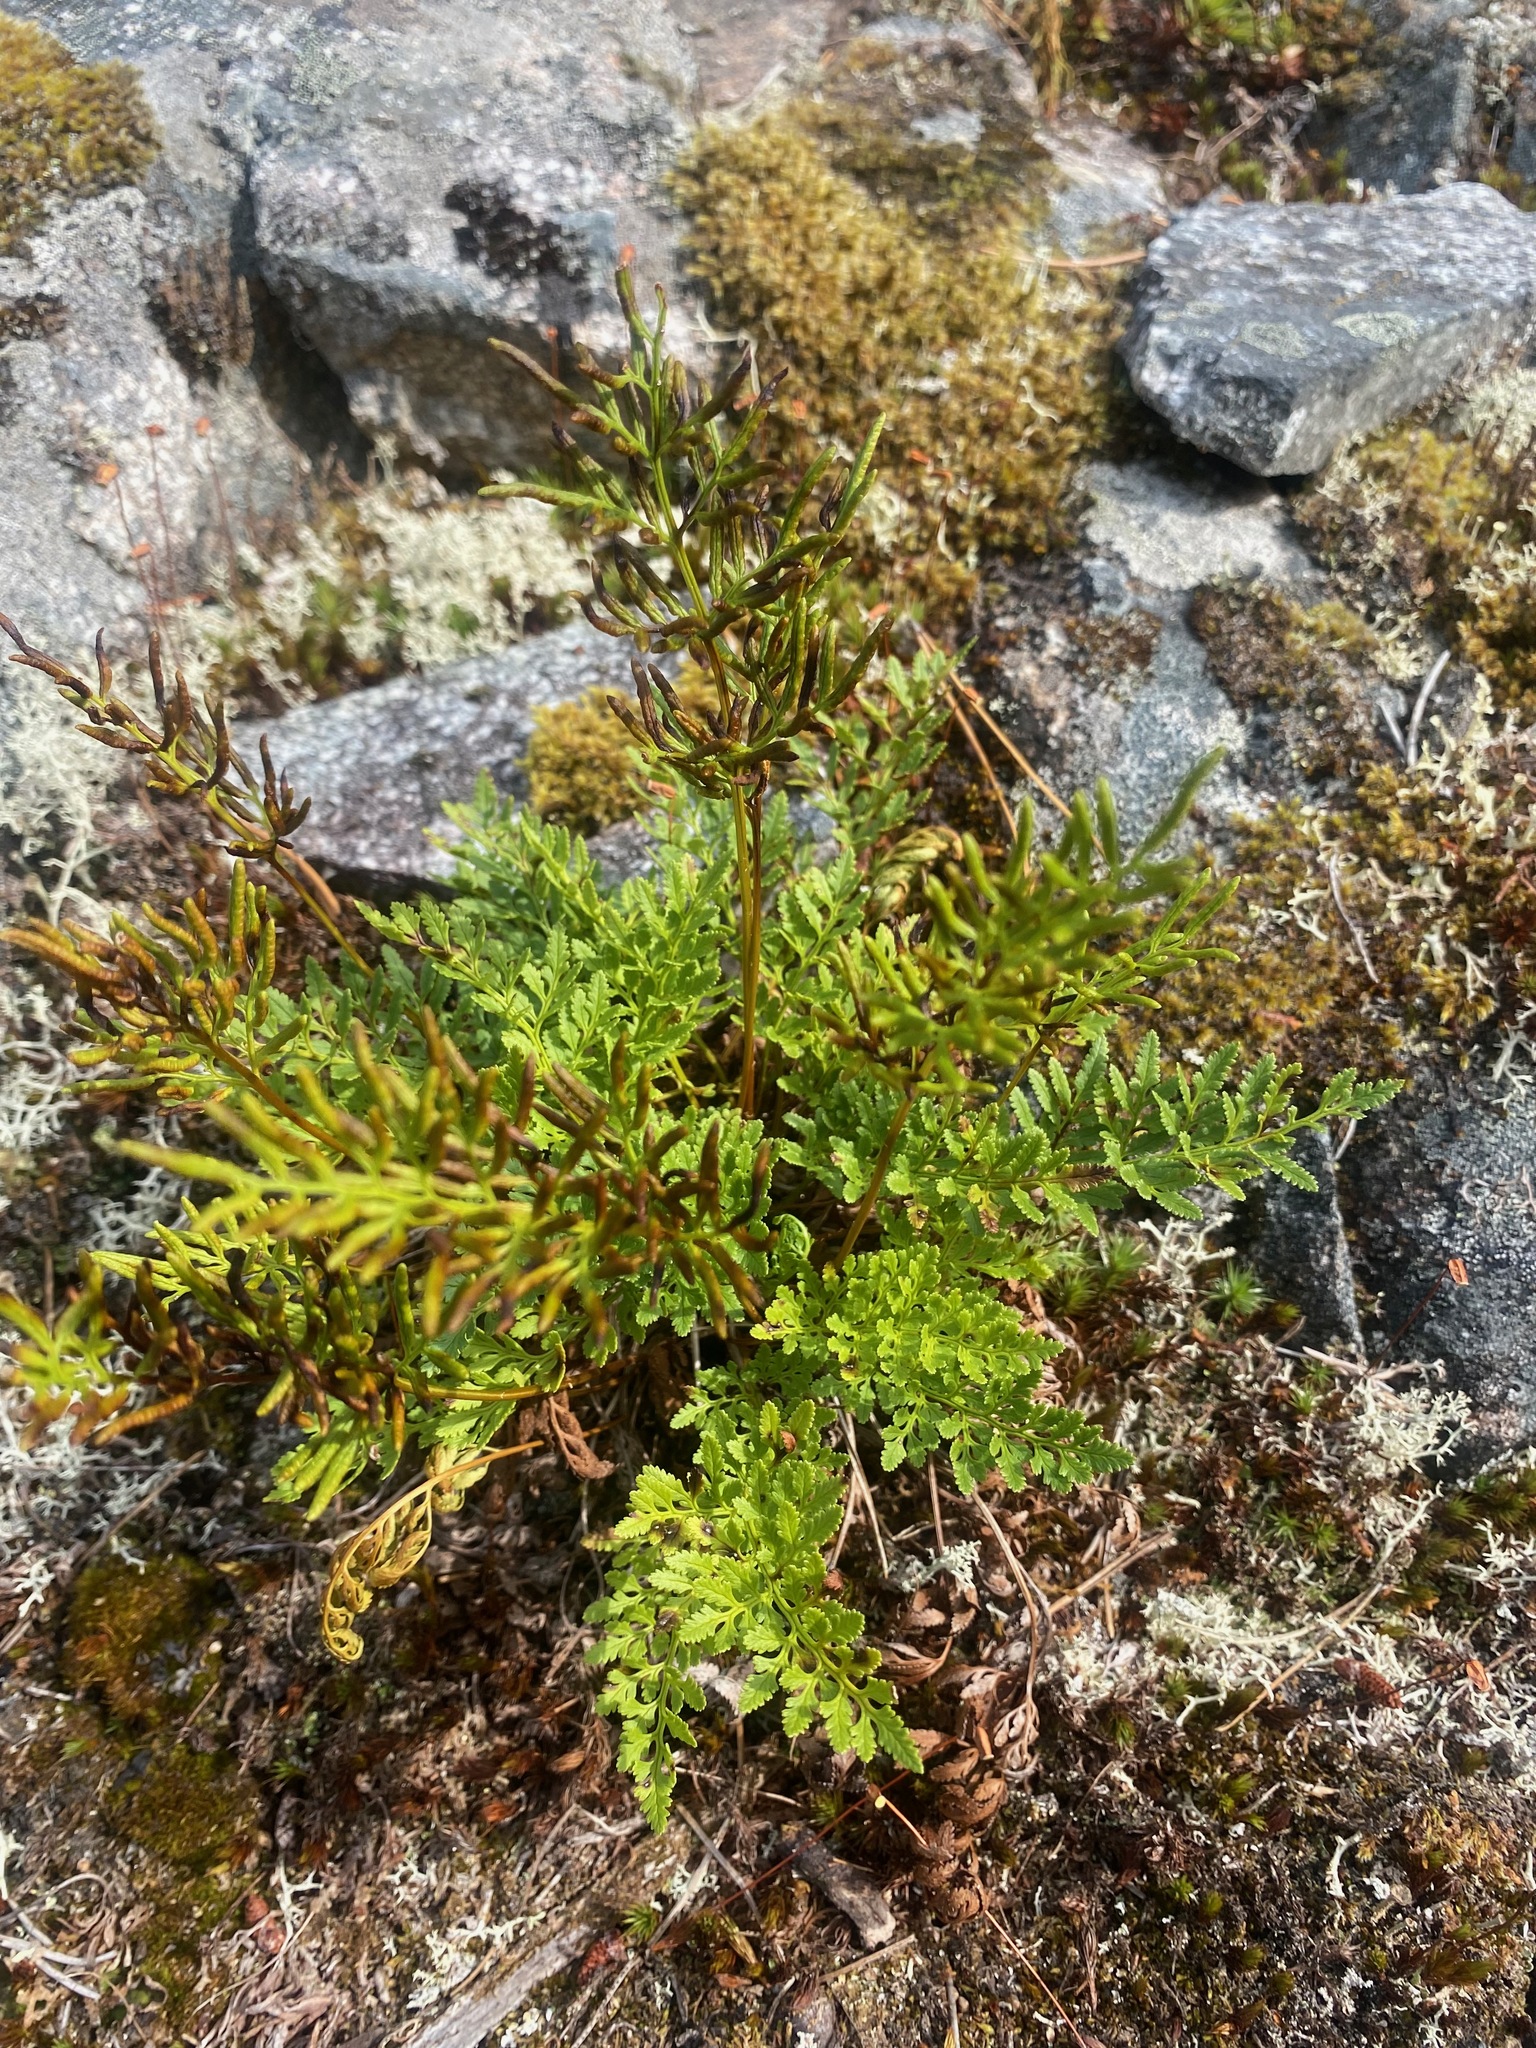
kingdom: Plantae
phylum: Tracheophyta
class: Polypodiopsida
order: Polypodiales
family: Pteridaceae
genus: Cryptogramma
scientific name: Cryptogramma acrostichoides
